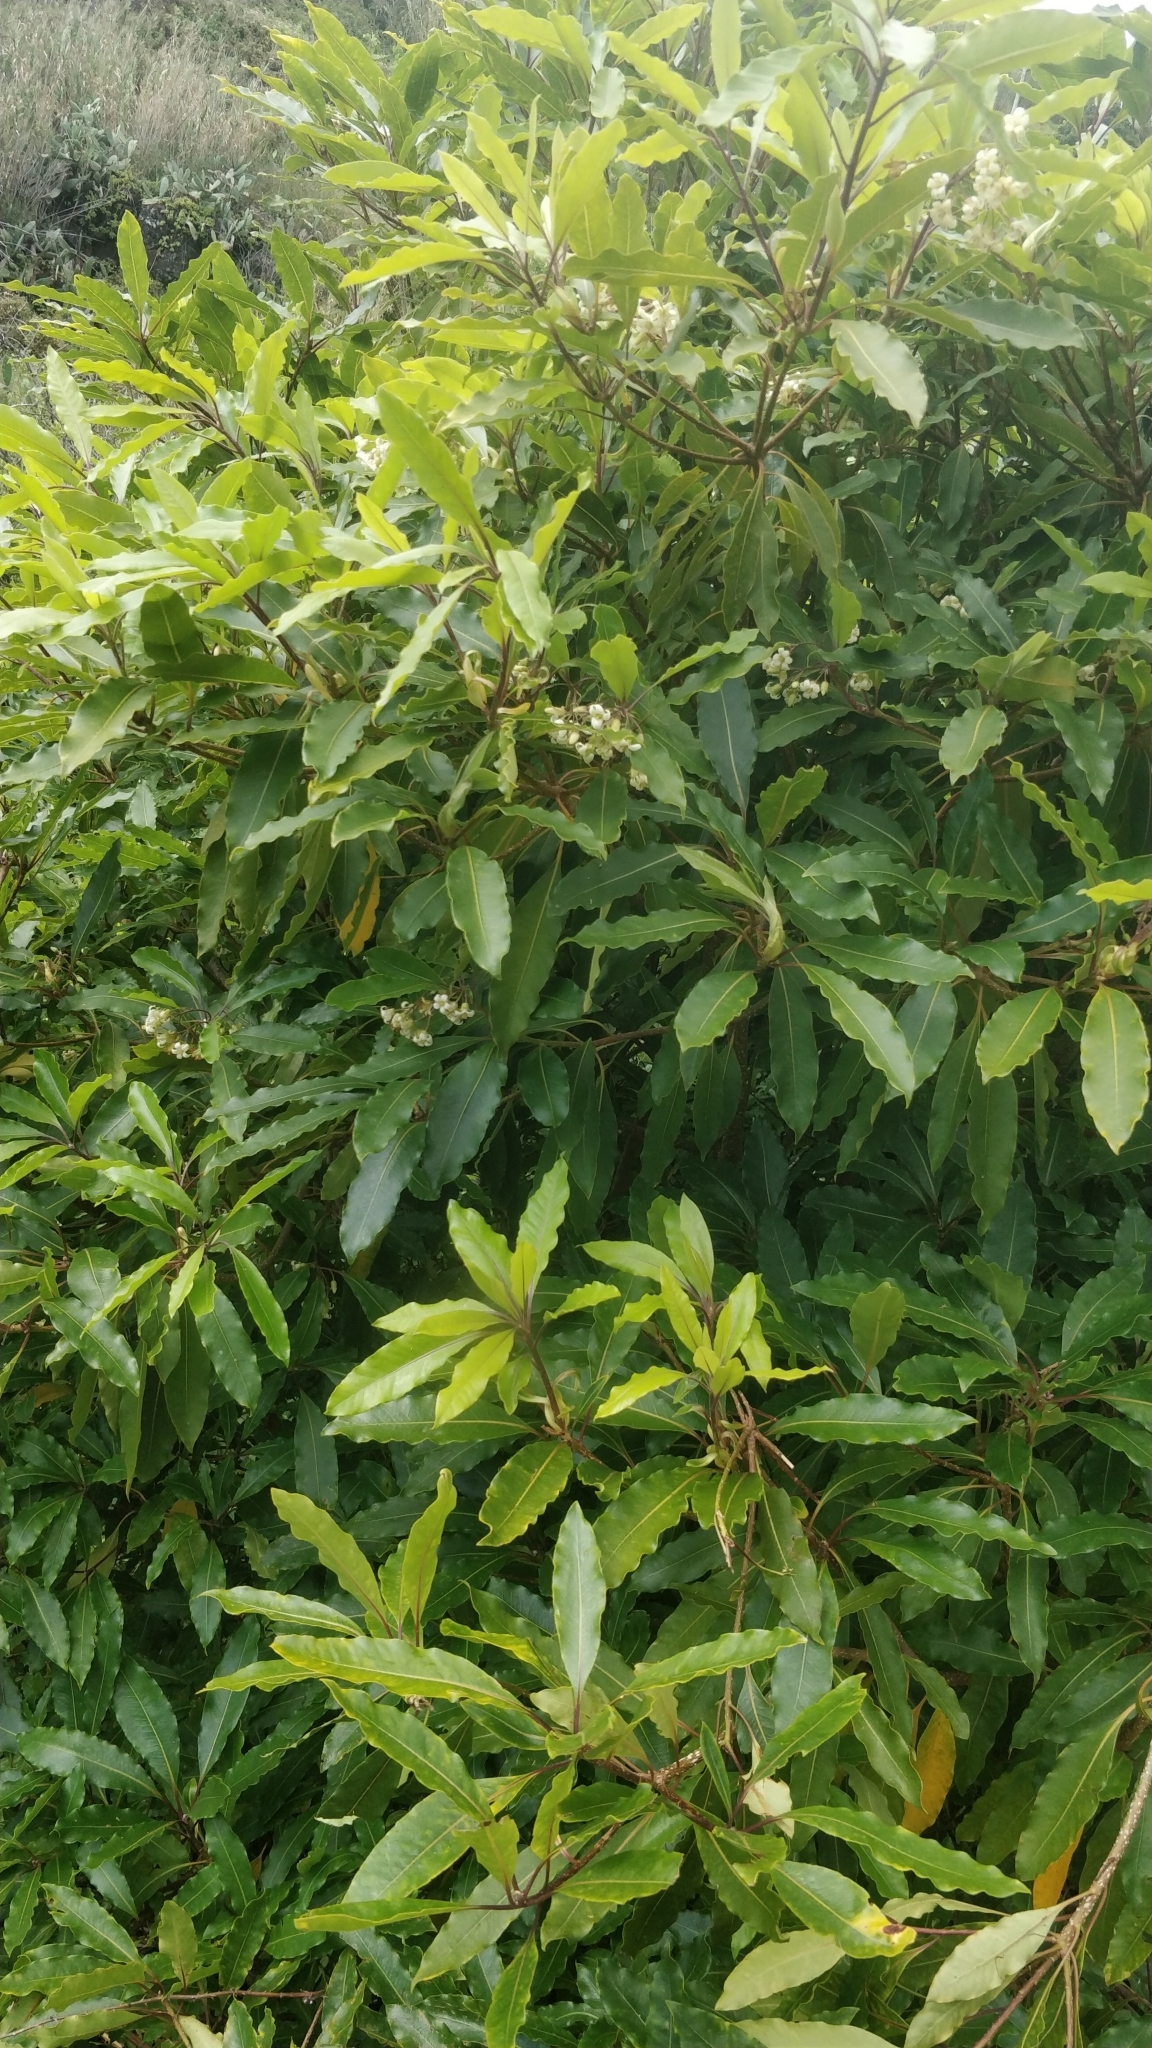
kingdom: Plantae
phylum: Tracheophyta
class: Magnoliopsida
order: Apiales
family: Pittosporaceae
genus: Pittosporum
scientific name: Pittosporum undulatum
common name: Australian cheesewood
